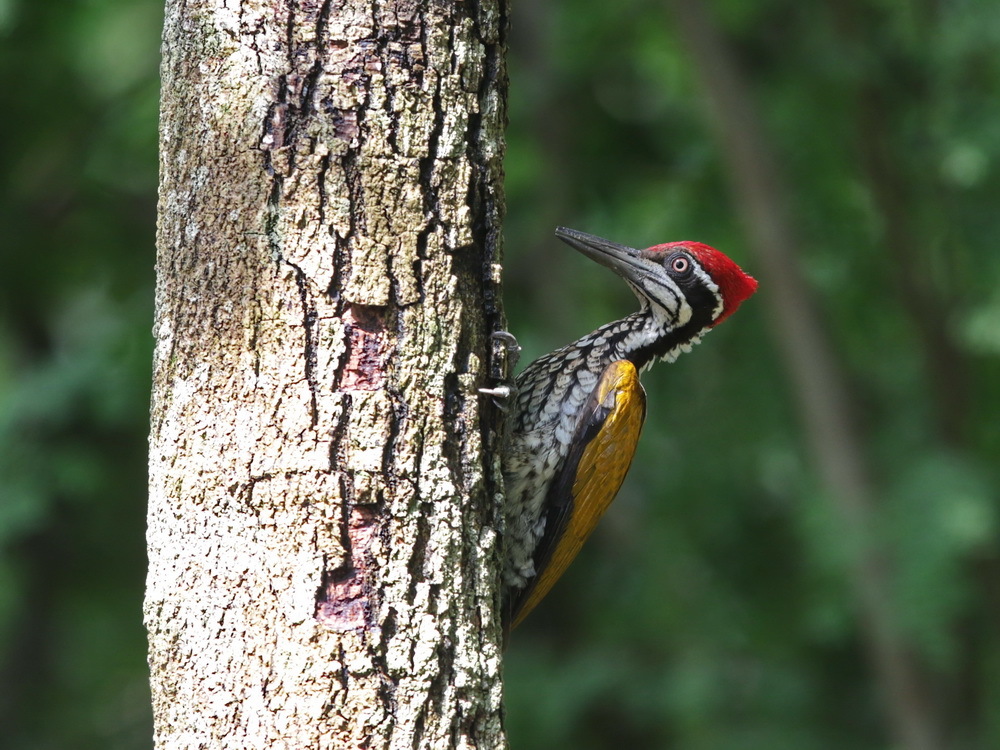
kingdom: Animalia
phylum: Chordata
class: Aves
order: Piciformes
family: Picidae
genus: Chrysocolaptes
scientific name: Chrysocolaptes guttacristatus
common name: Greater flameback
